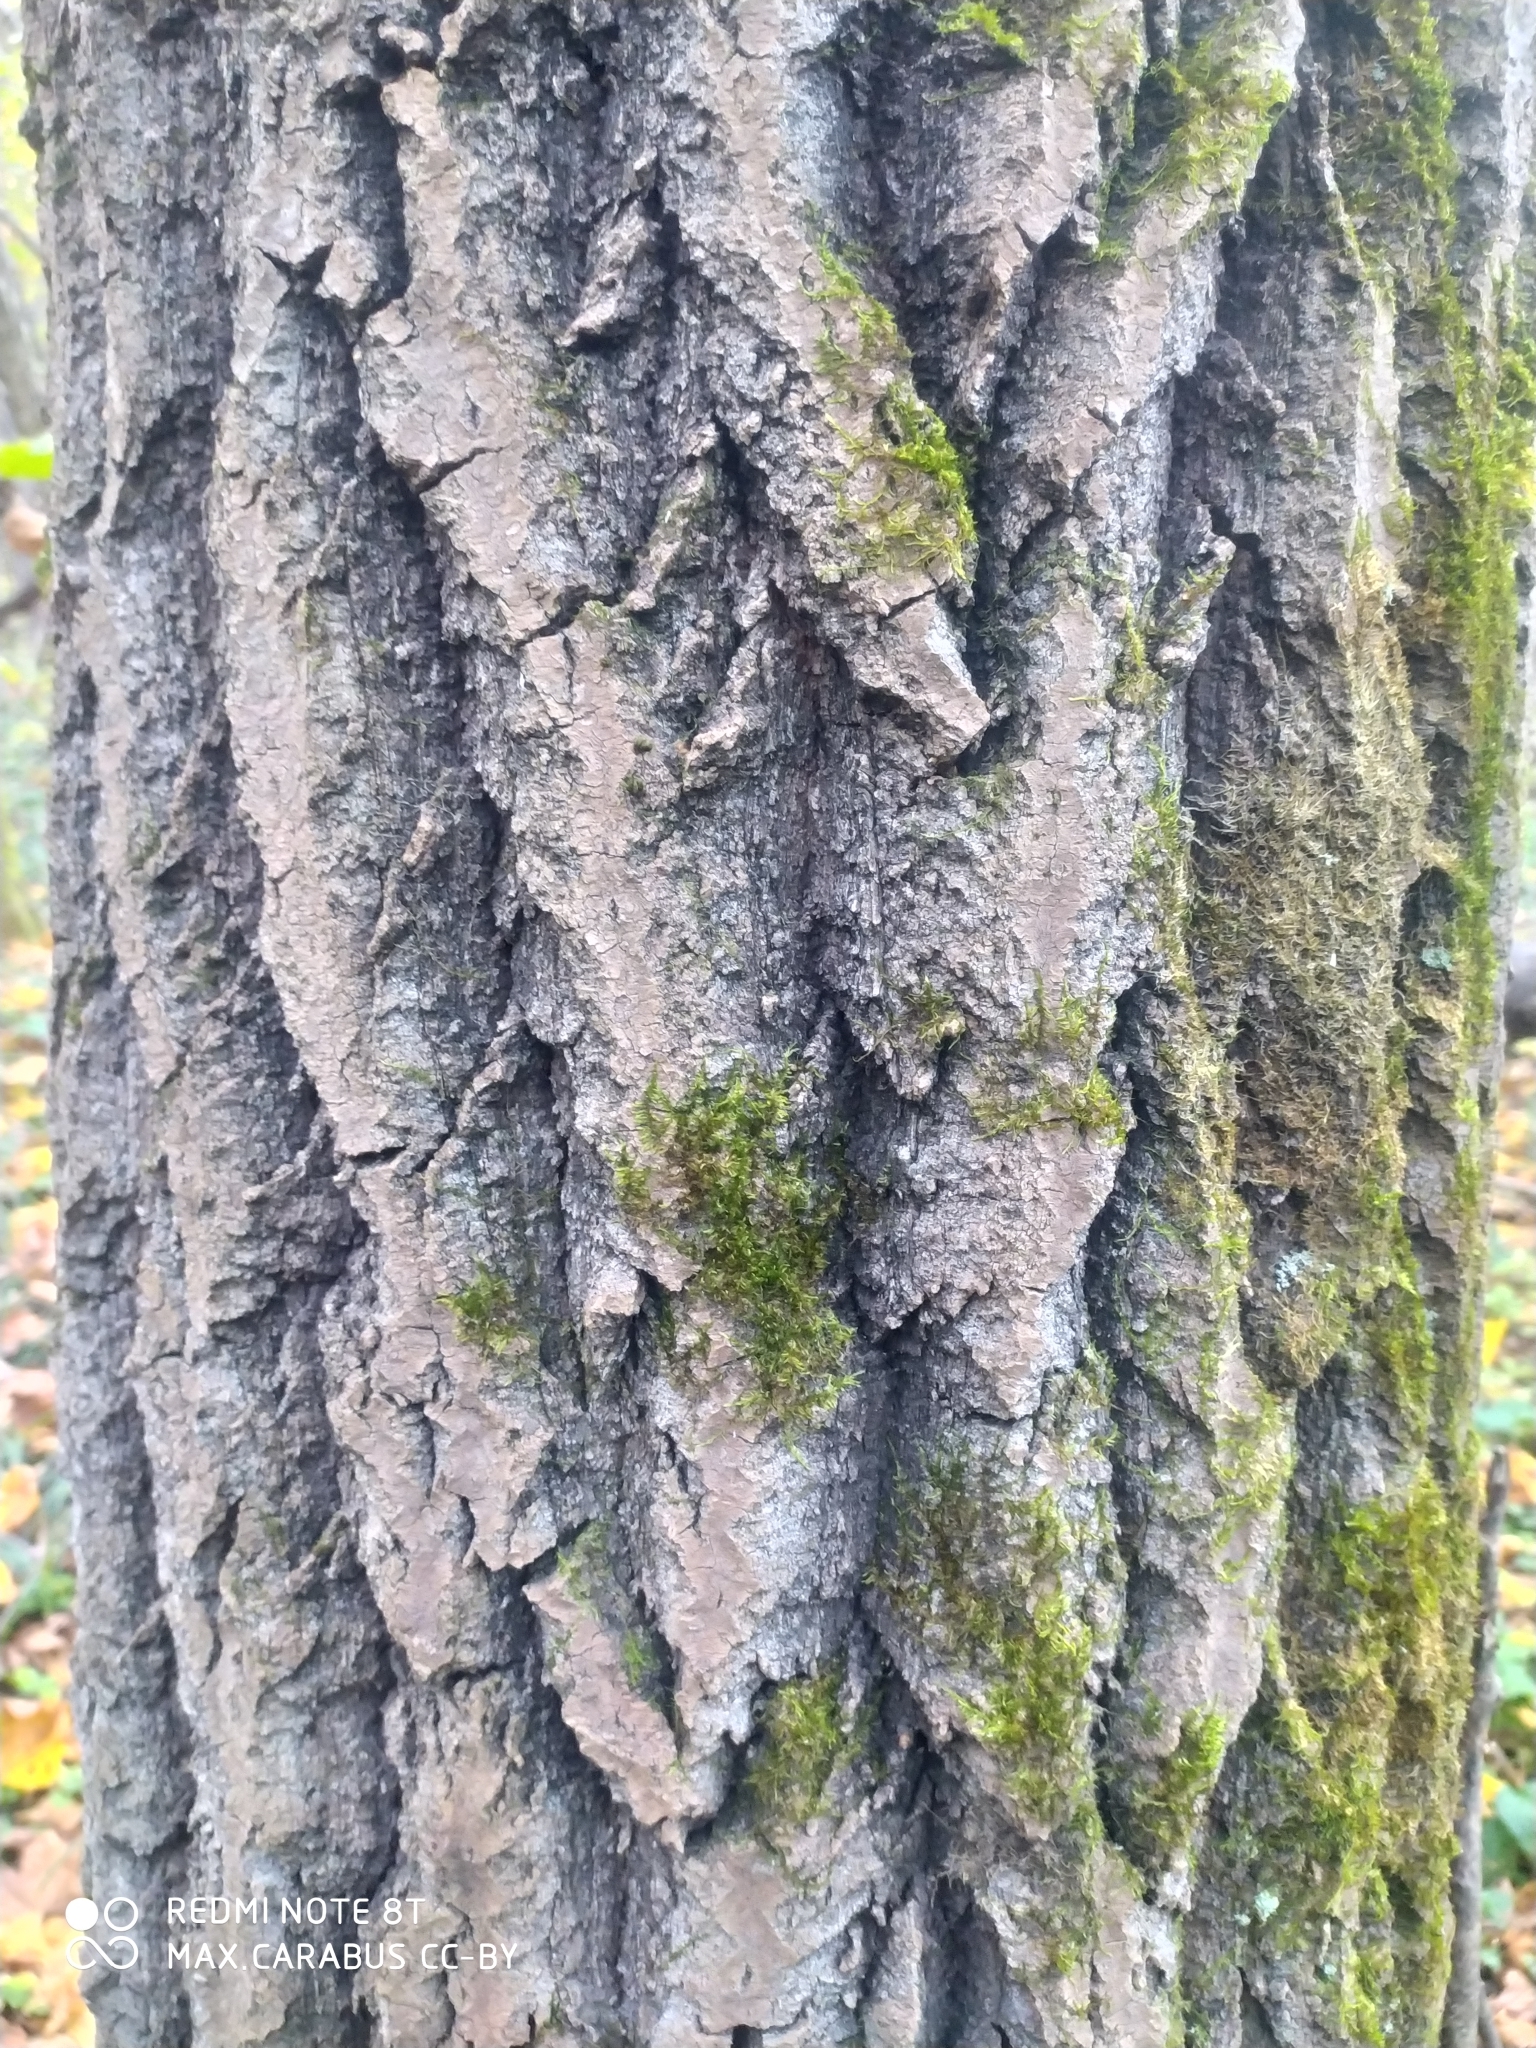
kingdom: Plantae
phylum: Tracheophyta
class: Magnoliopsida
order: Malpighiales
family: Salicaceae
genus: Populus
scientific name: Populus tremula
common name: European aspen
